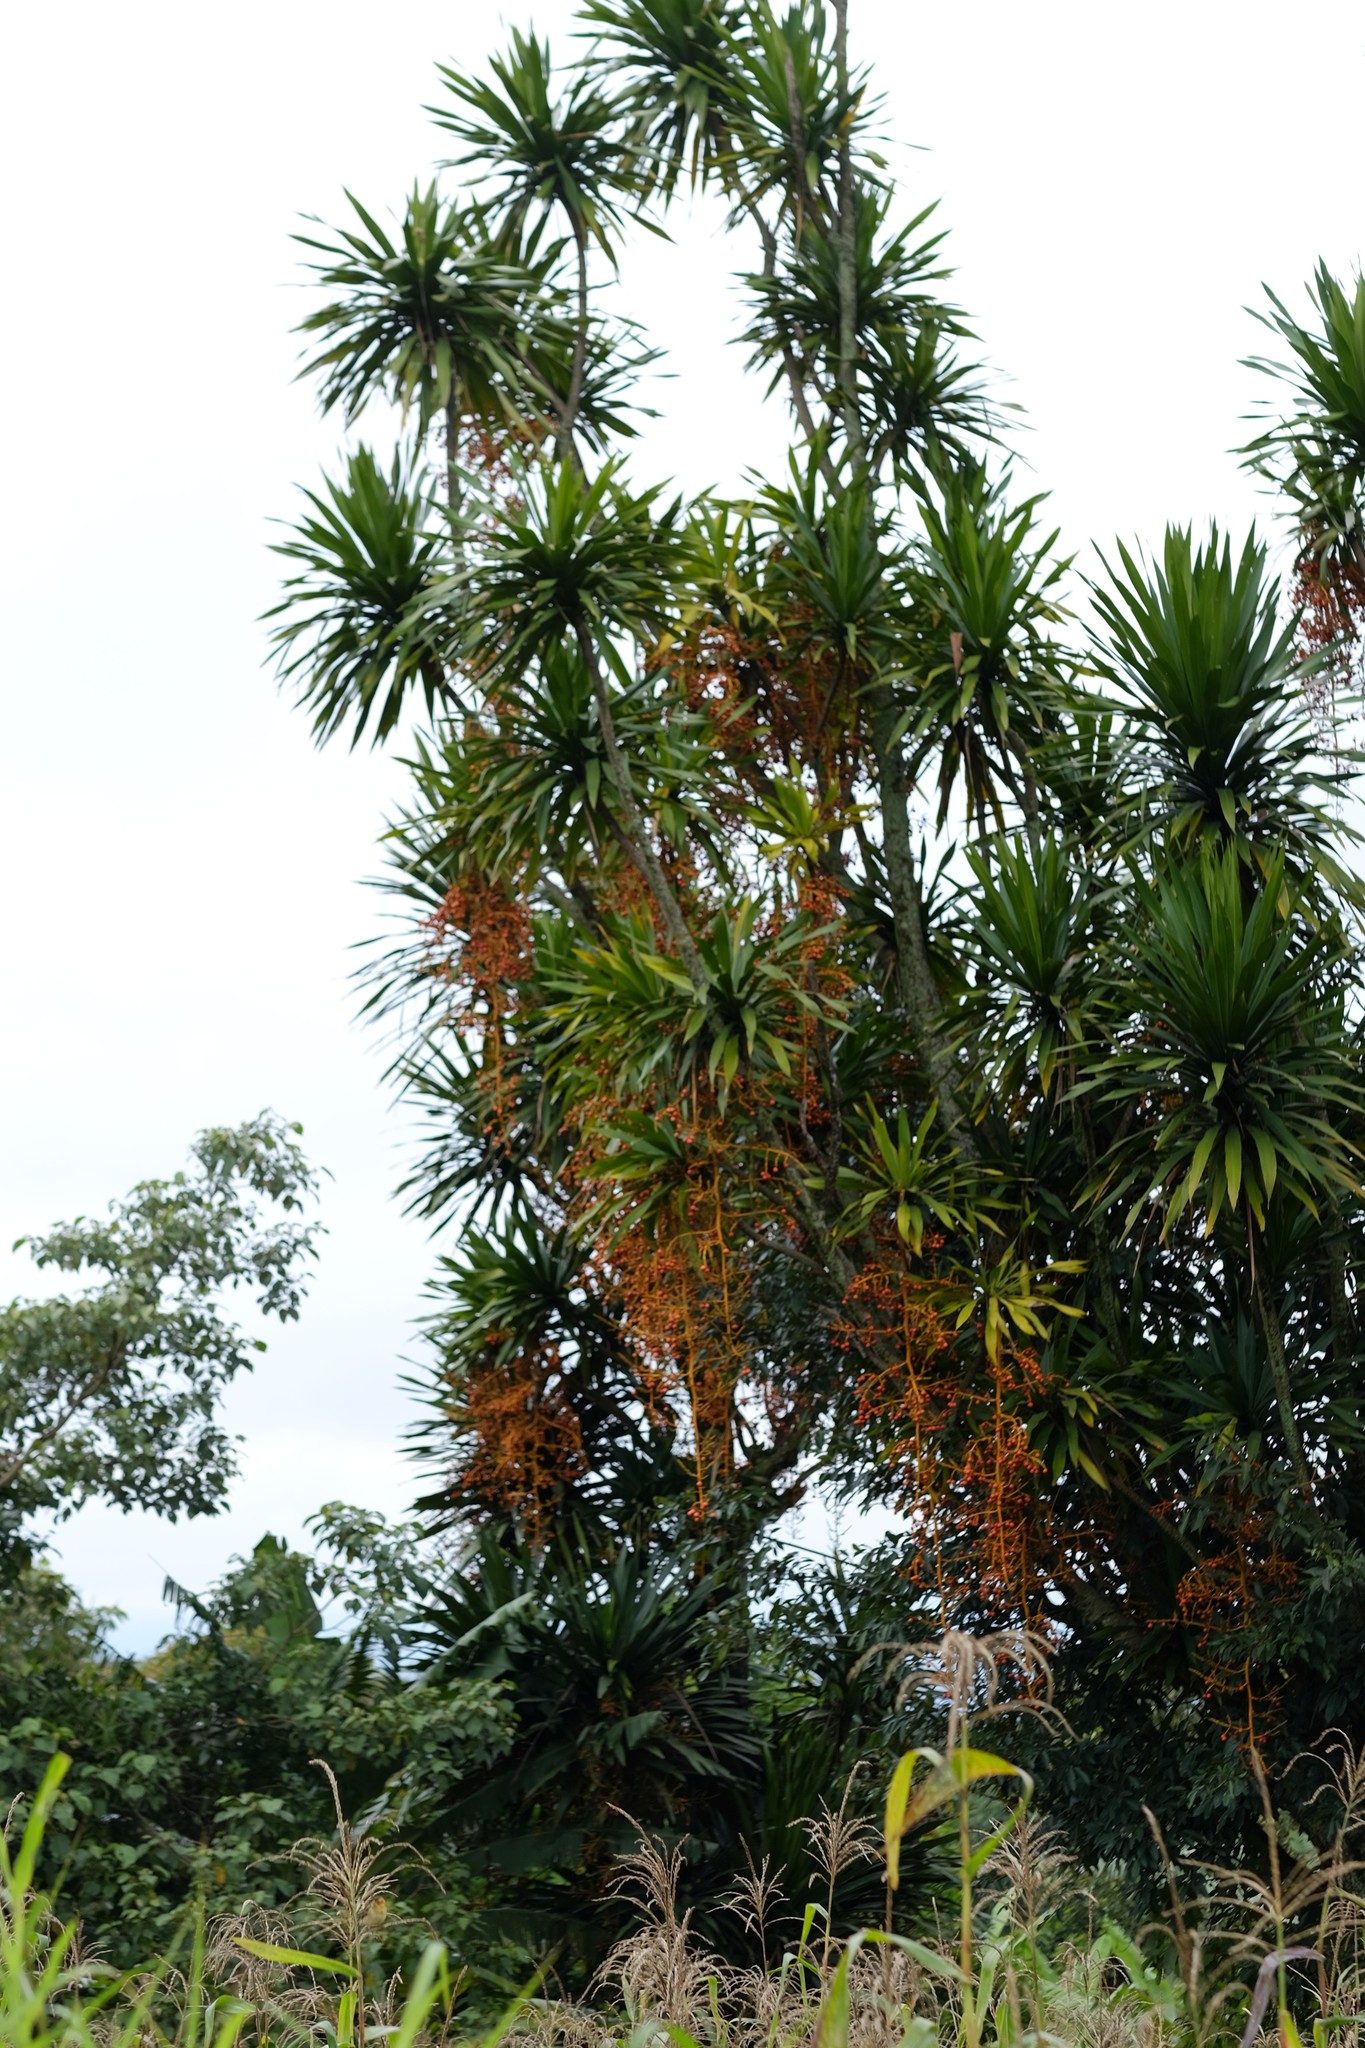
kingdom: Plantae
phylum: Tracheophyta
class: Liliopsida
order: Asparagales
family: Asparagaceae
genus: Dracaena
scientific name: Dracaena arborea
